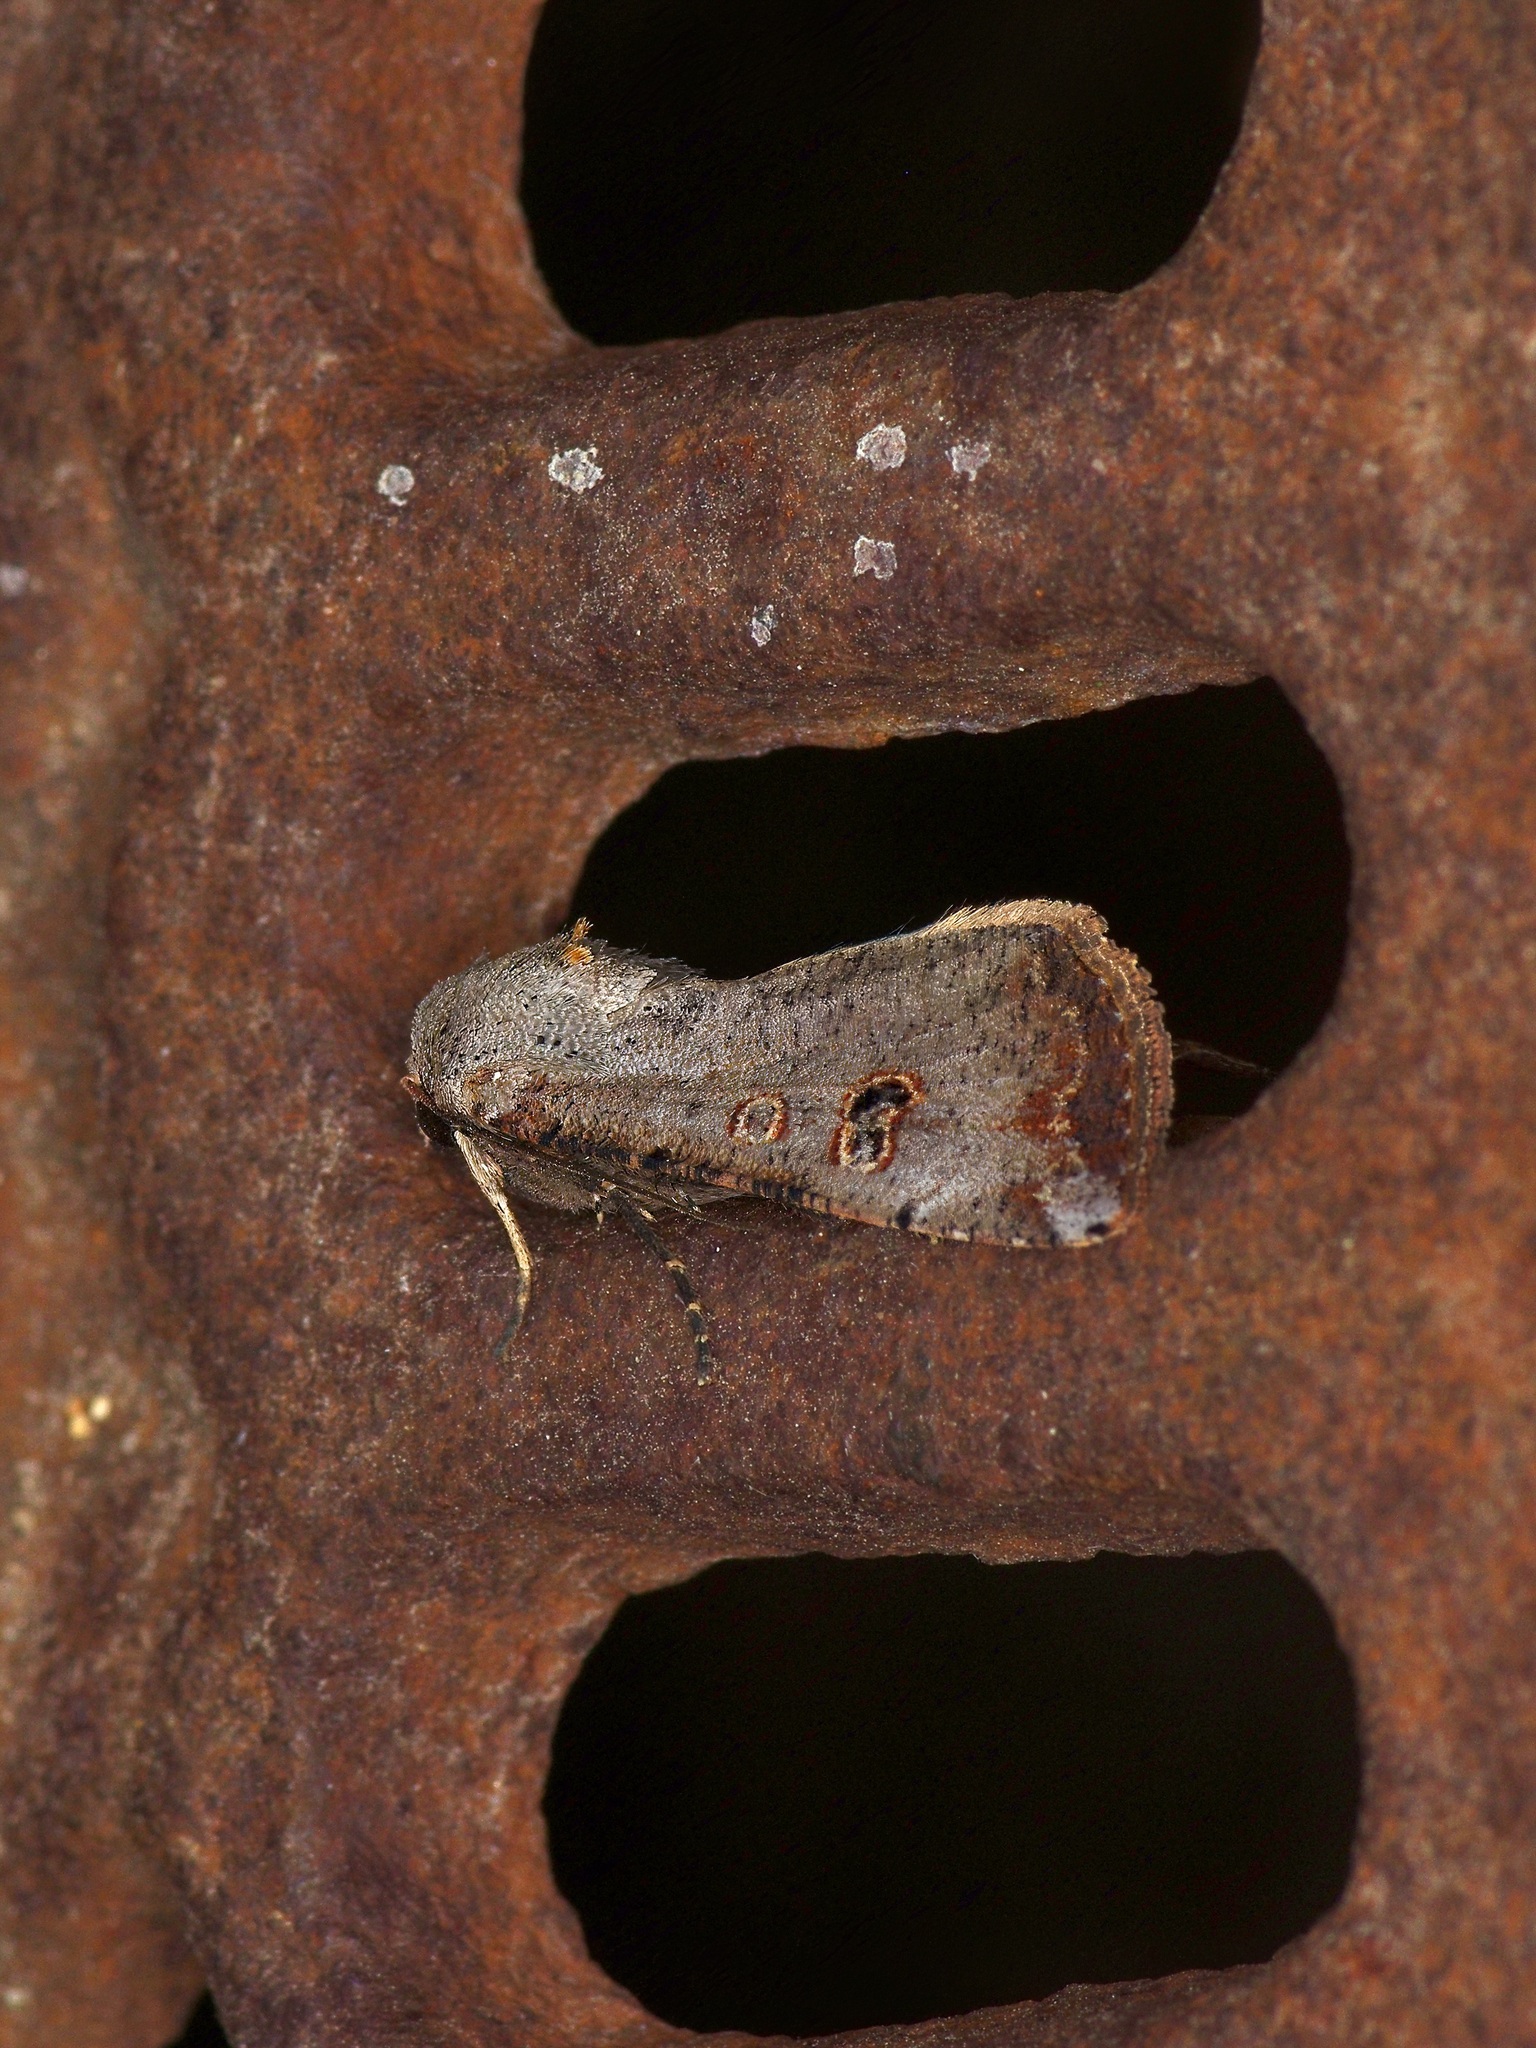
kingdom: Animalia
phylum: Arthropoda
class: Insecta
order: Lepidoptera
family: Noctuidae
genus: Anicla
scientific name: Anicla infecta
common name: Green cutworm
